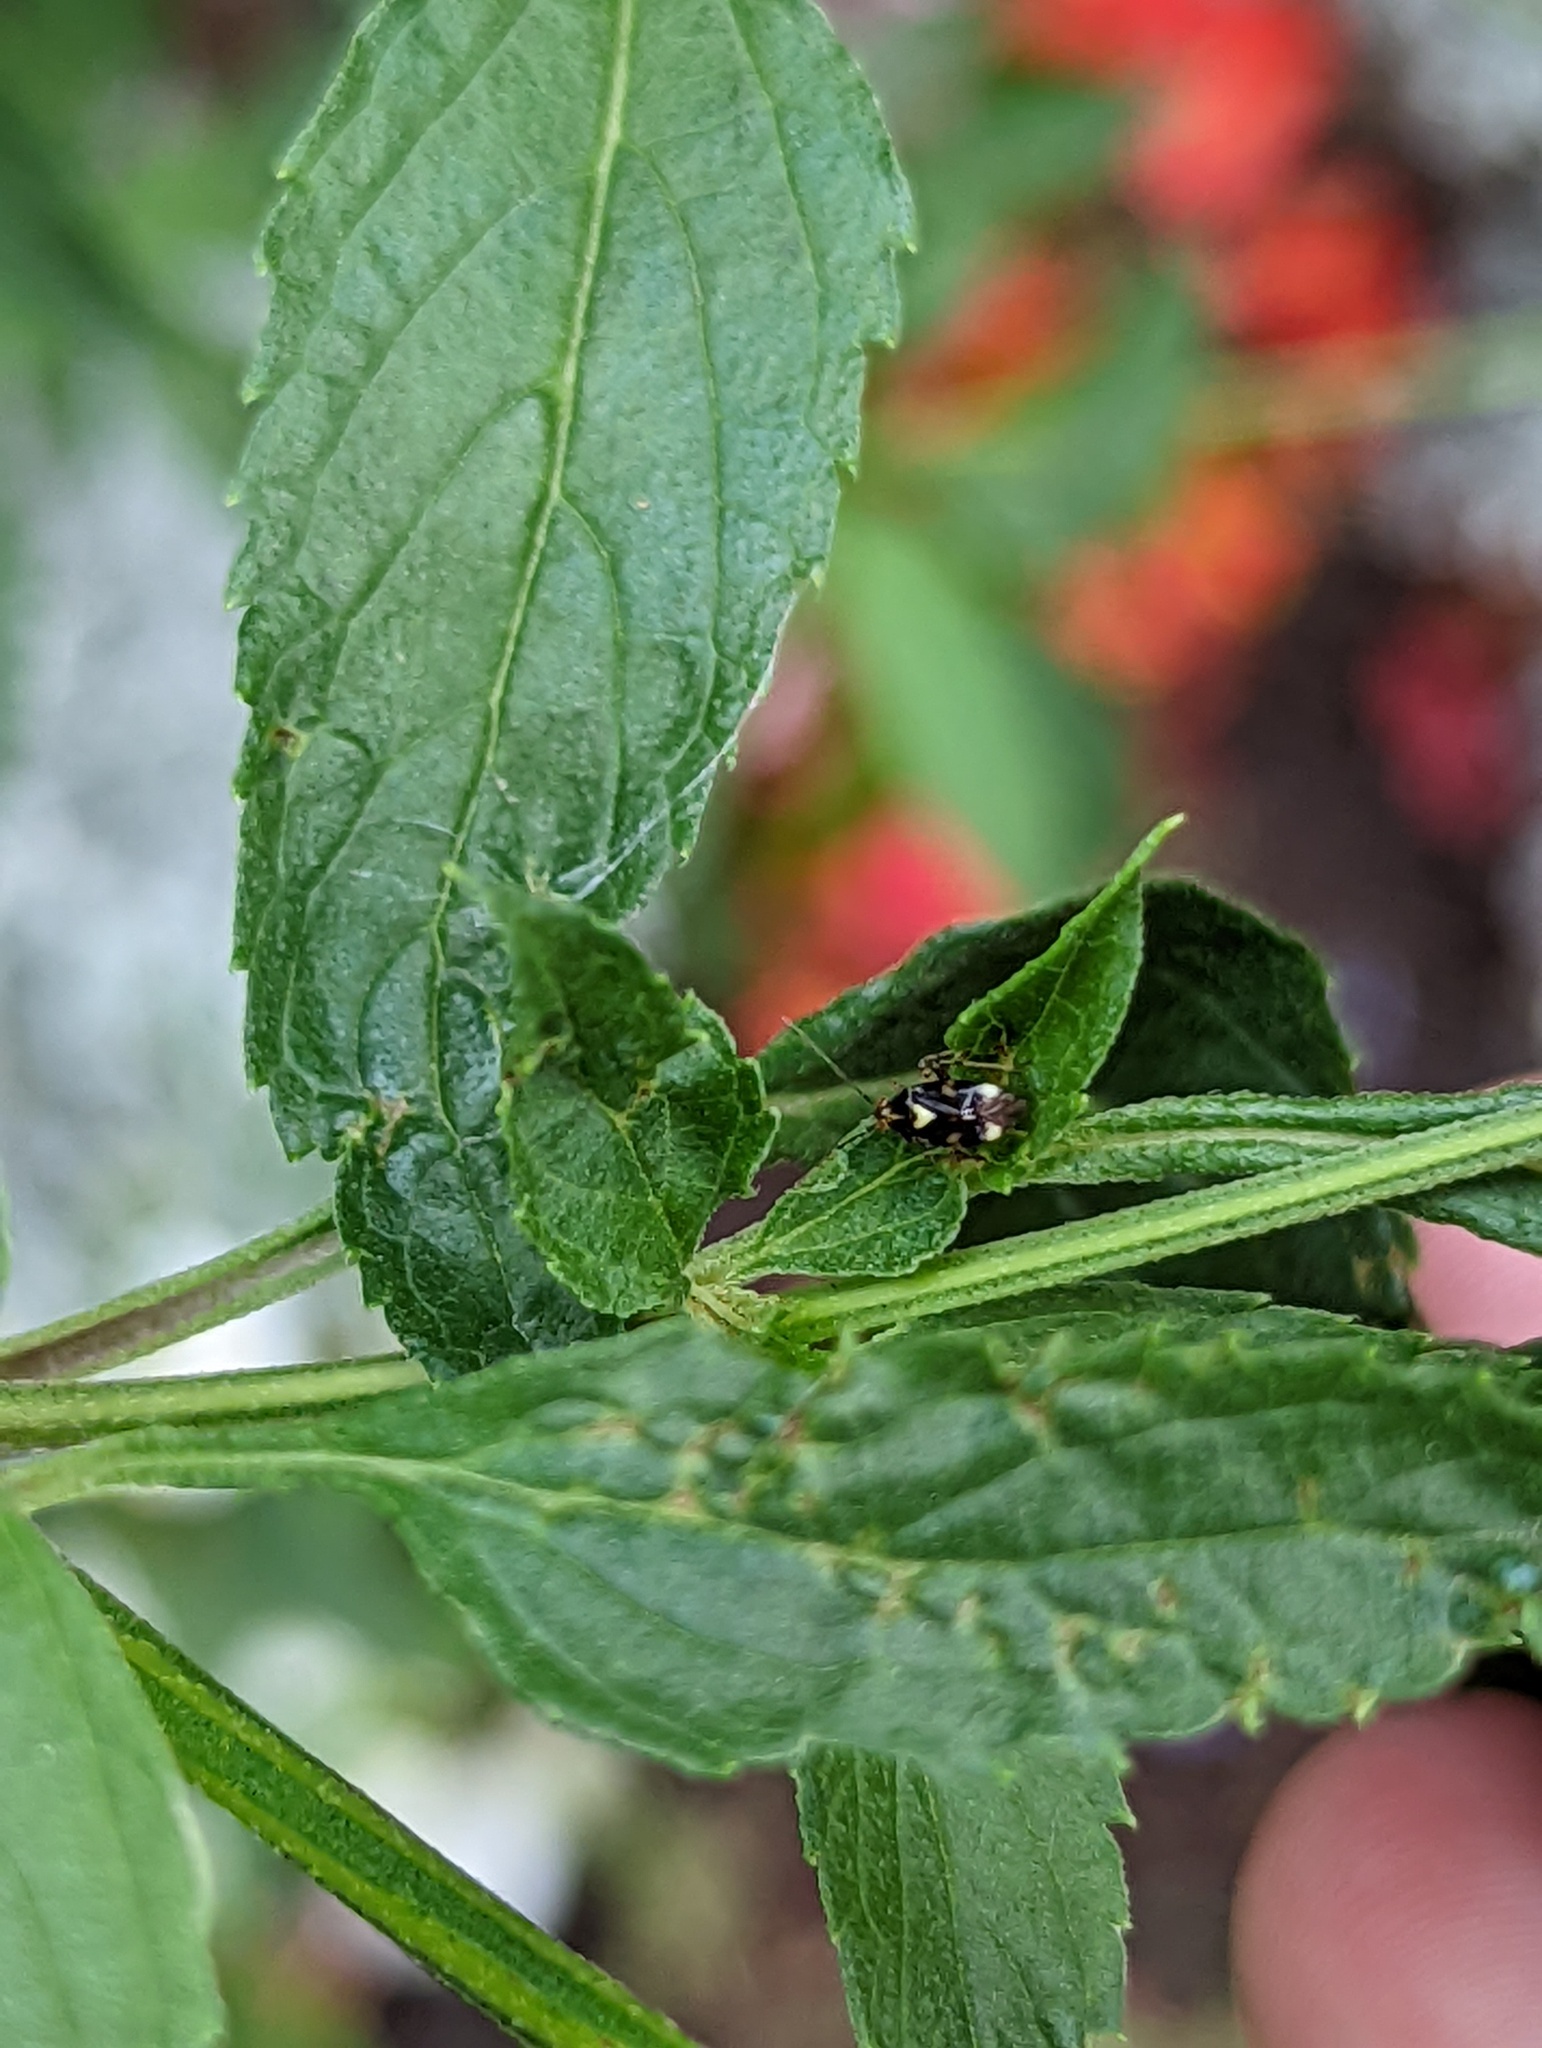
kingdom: Animalia
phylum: Arthropoda
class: Insecta
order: Hemiptera
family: Miridae
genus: Liocoris
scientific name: Liocoris tripustulatus
